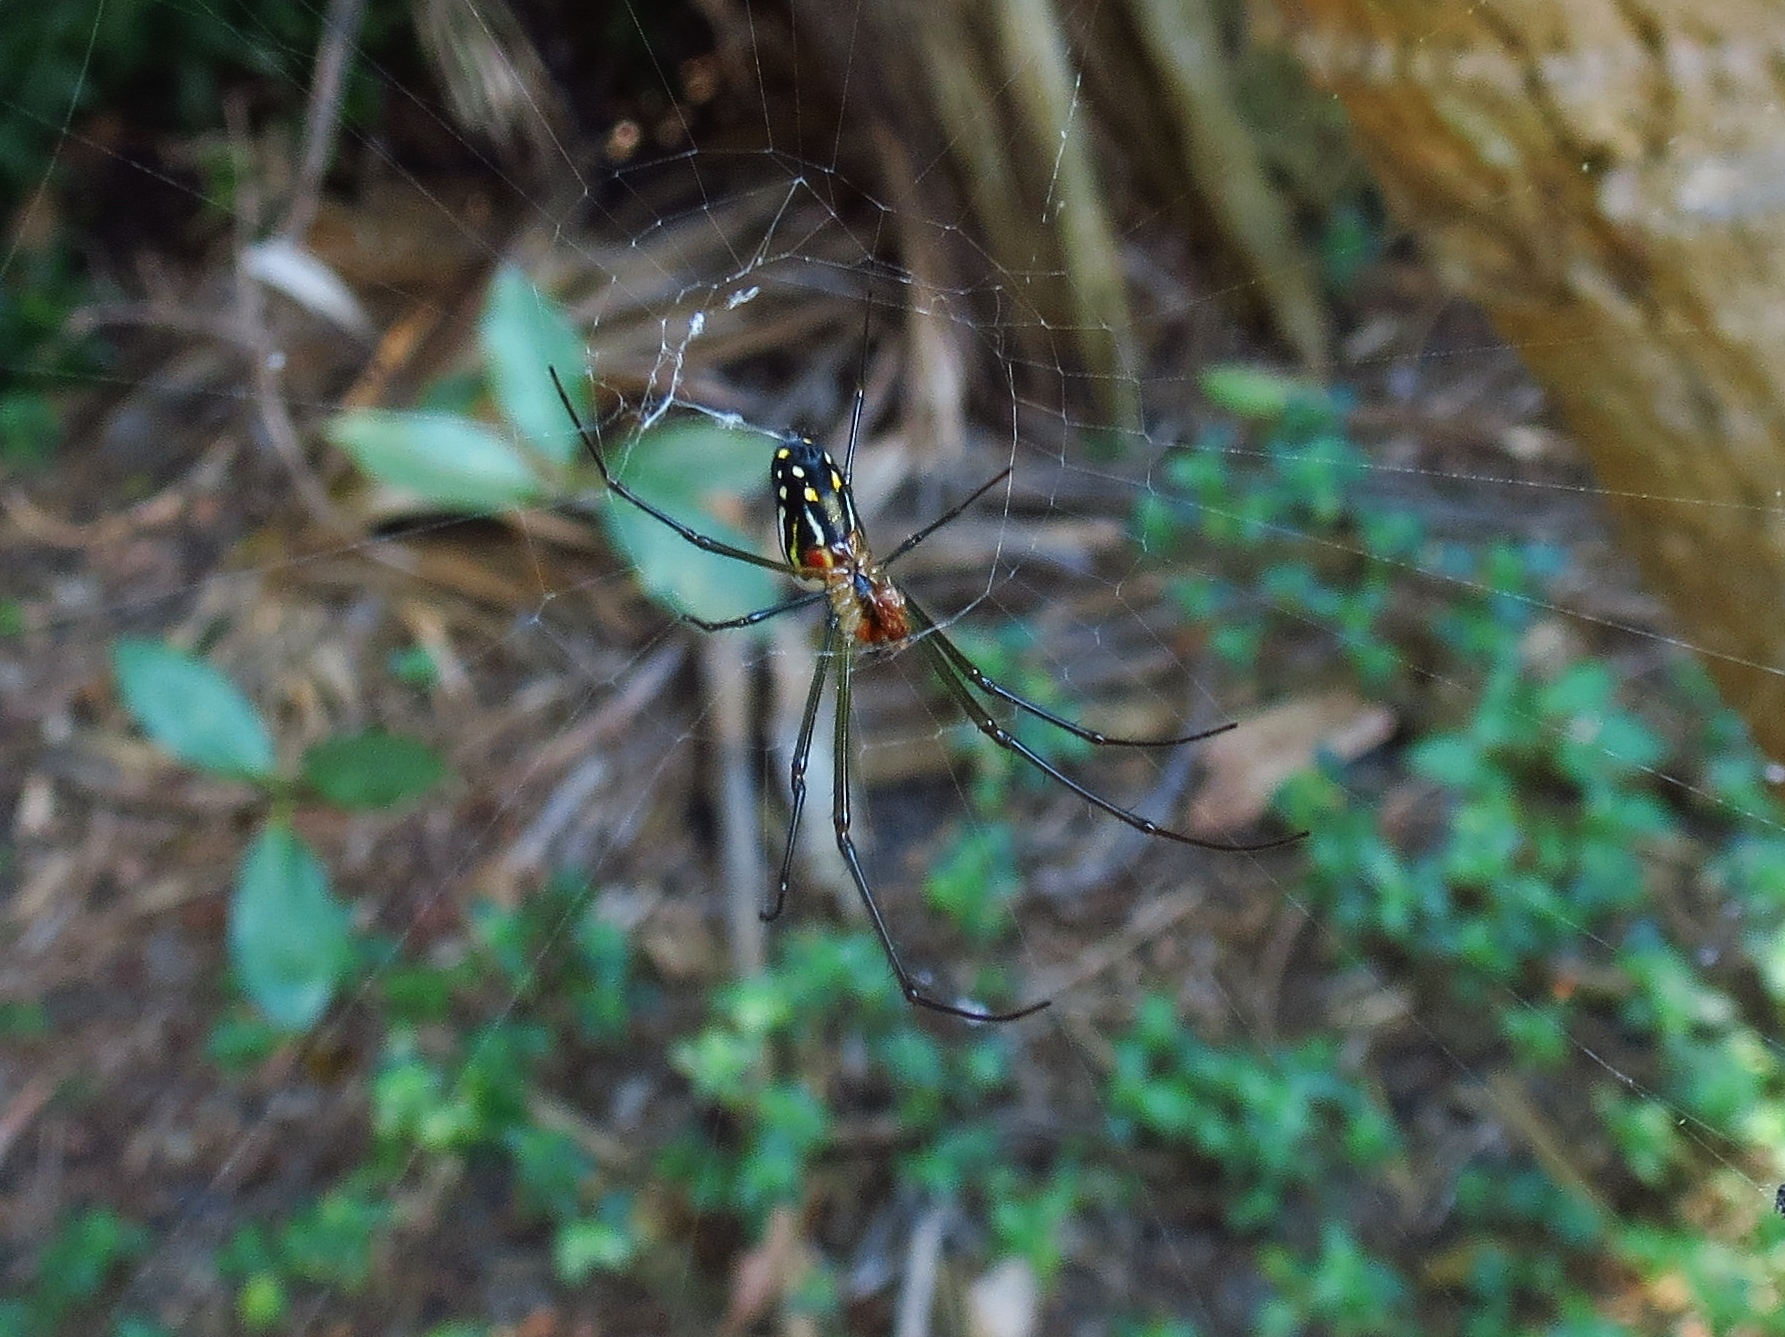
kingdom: Animalia
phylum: Arthropoda
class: Arachnida
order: Araneae
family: Tetragnathidae
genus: Leucauge
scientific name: Leucauge argyra
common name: Longjawed orb weavers
